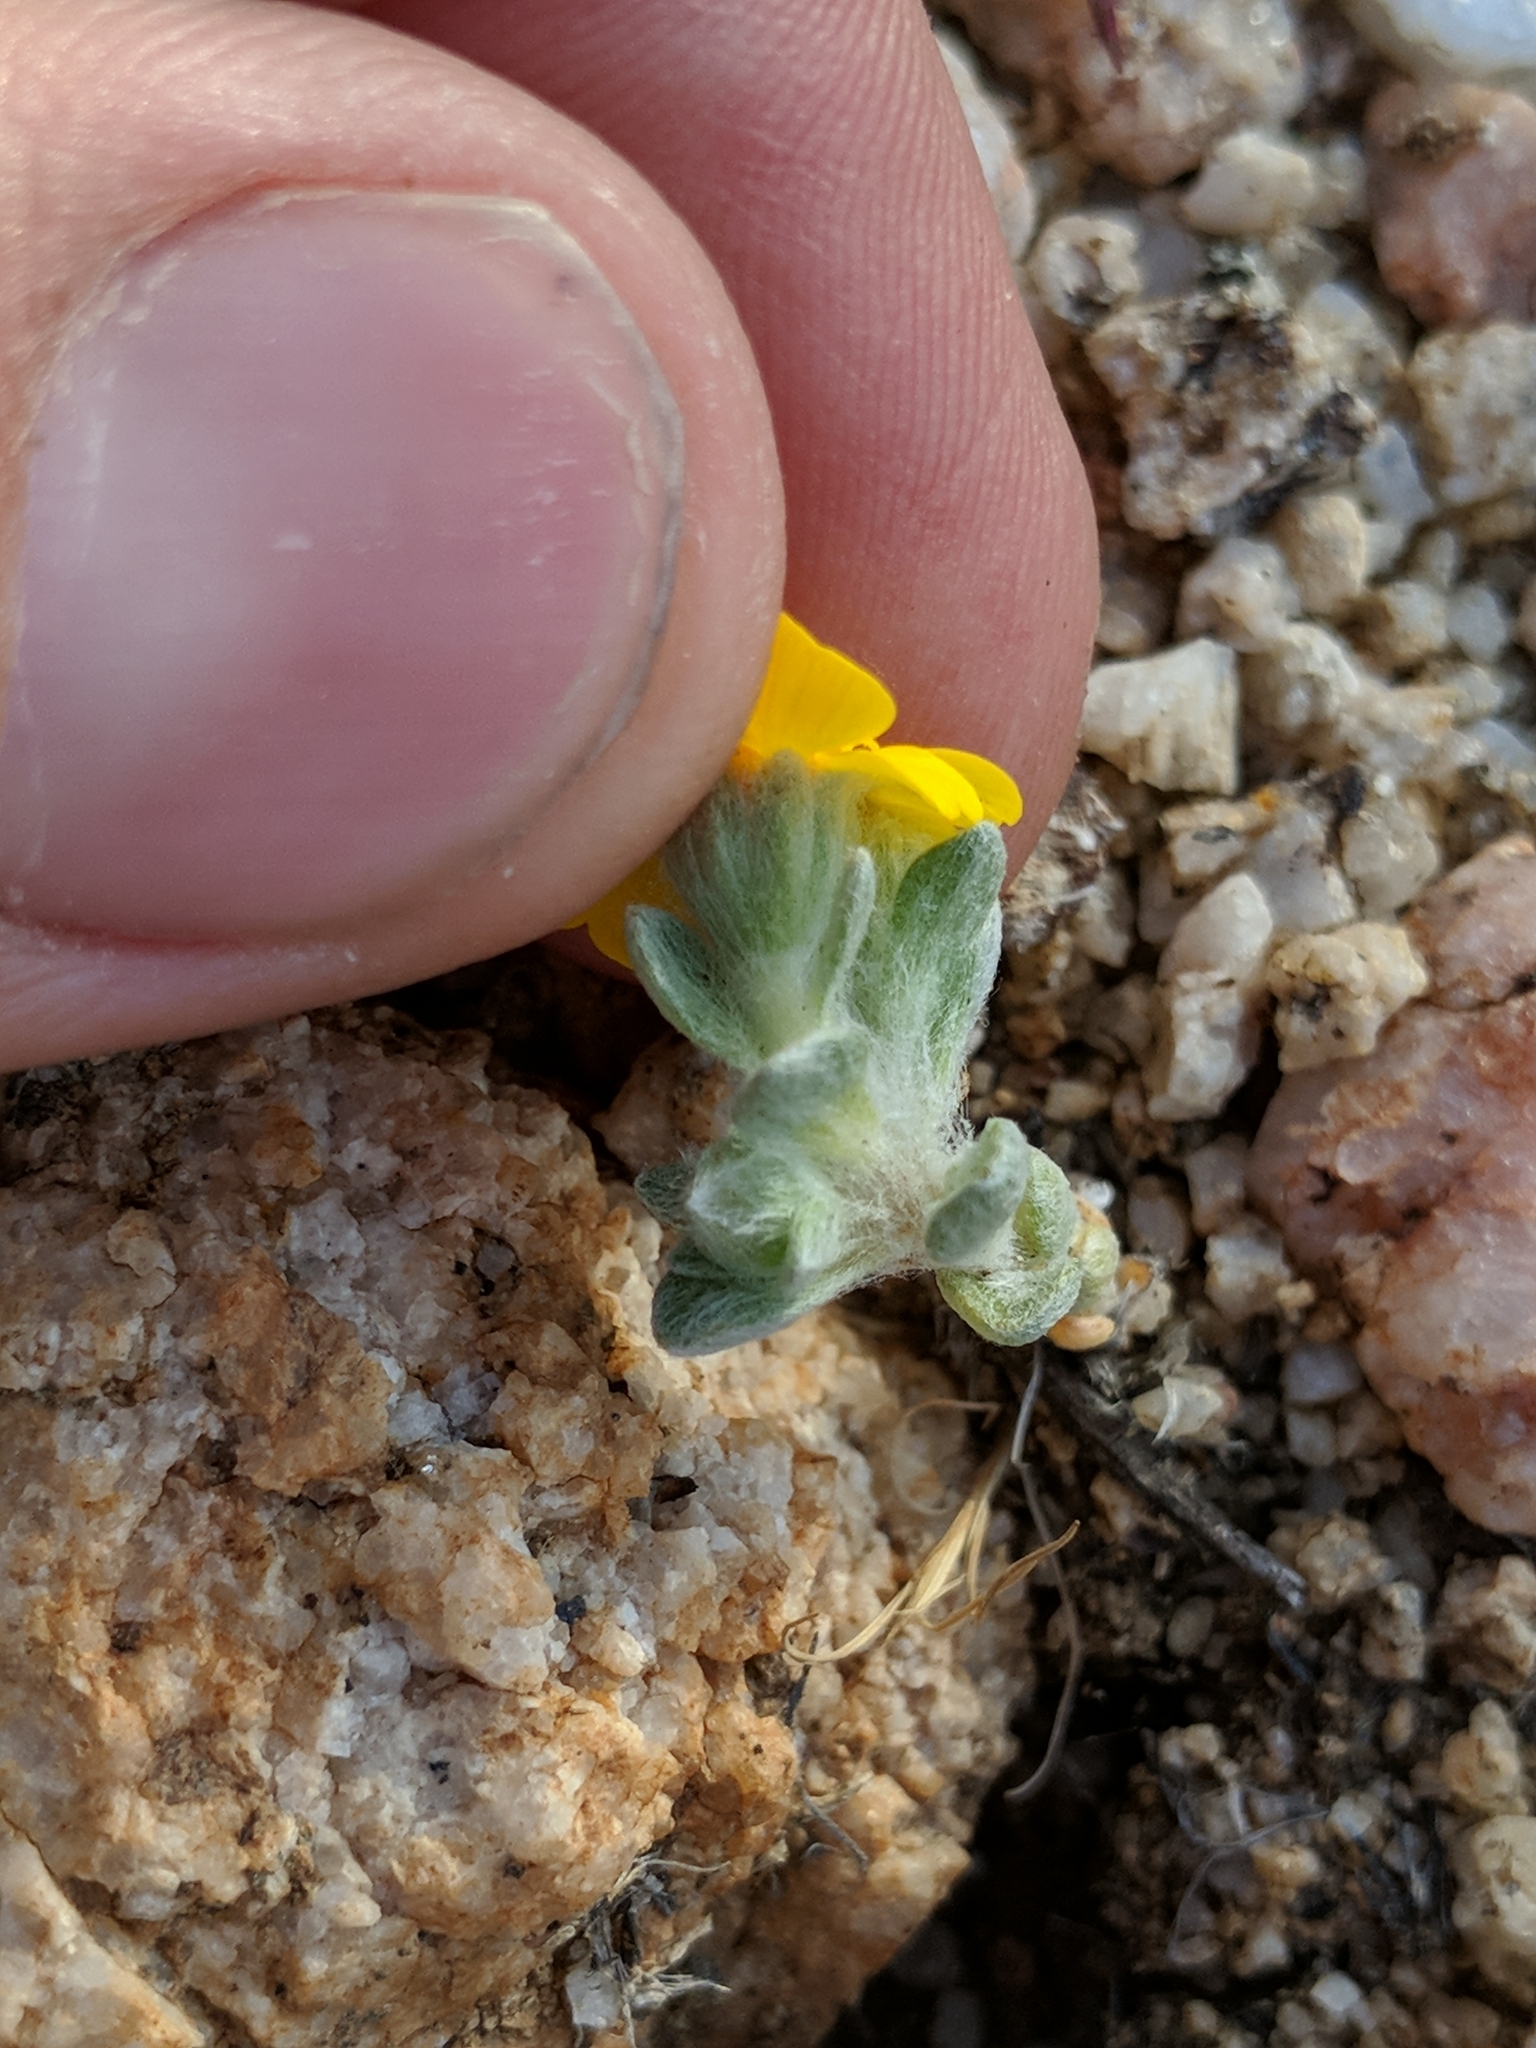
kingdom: Plantae
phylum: Tracheophyta
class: Magnoliopsida
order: Asterales
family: Asteraceae
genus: Eriophyllum
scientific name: Eriophyllum wallacei
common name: Wallace's woolly daisy
